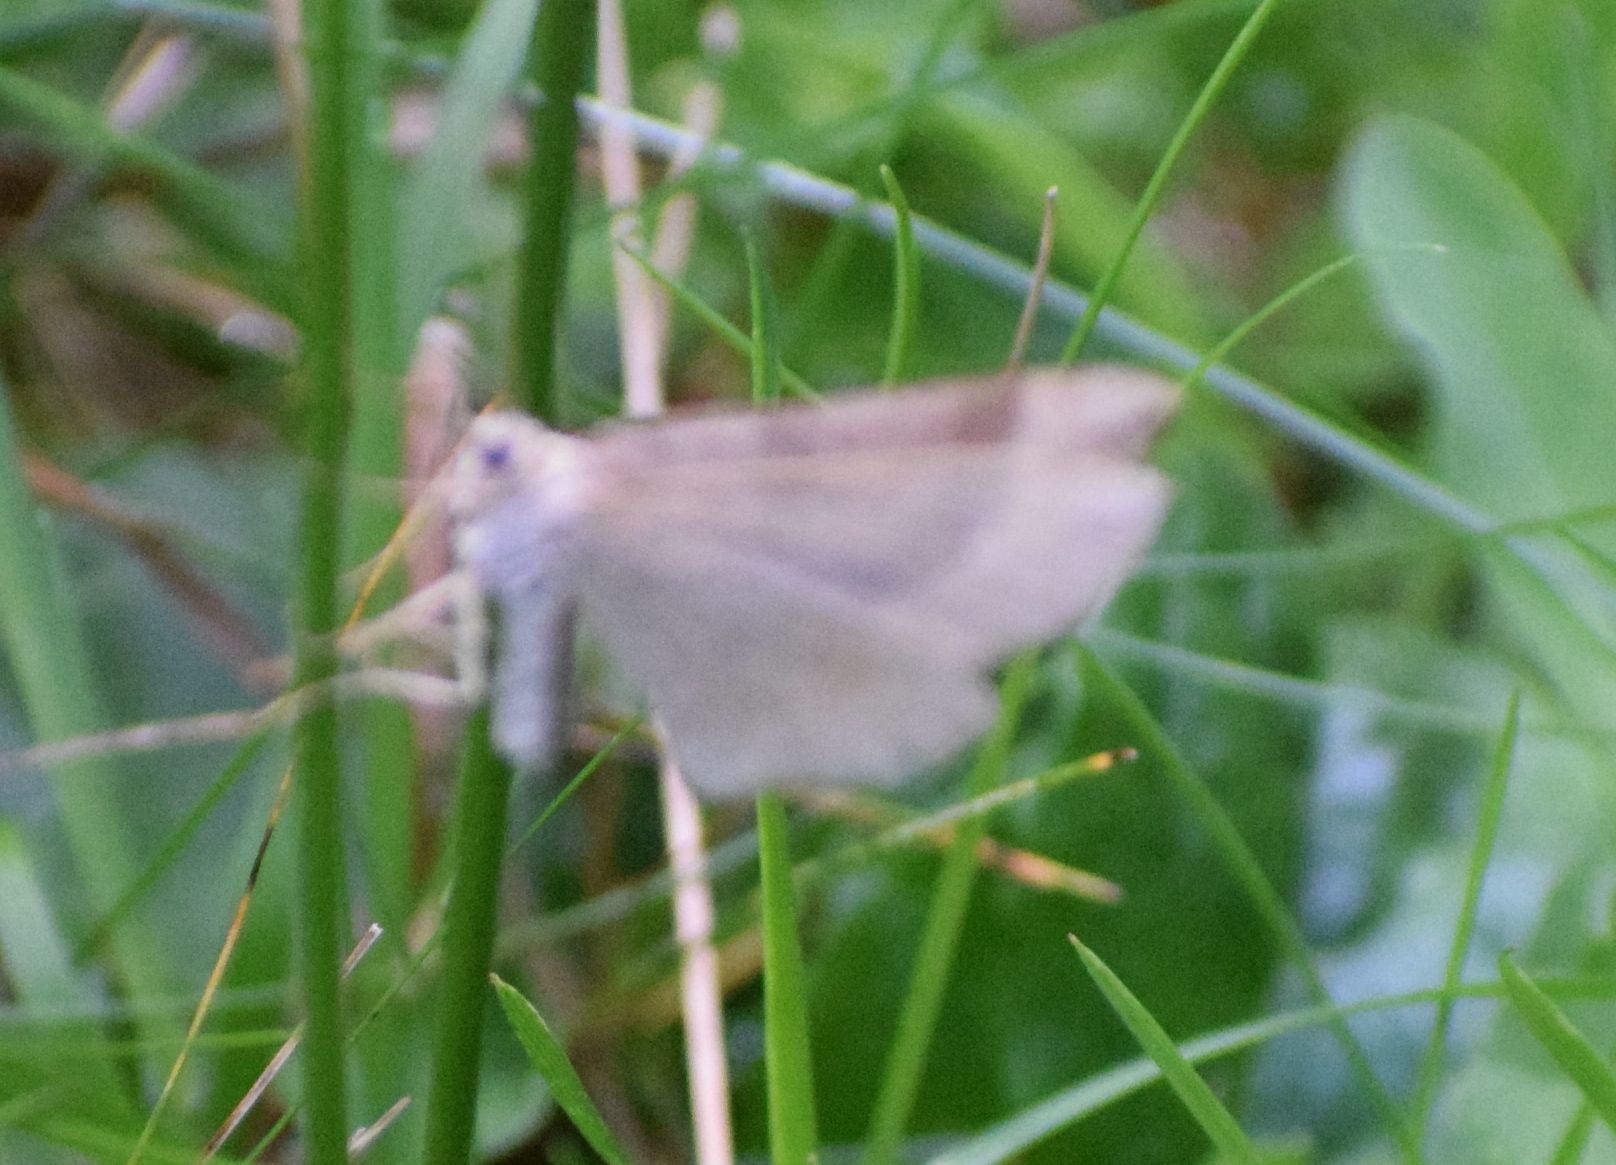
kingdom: Animalia
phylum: Arthropoda
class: Insecta
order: Lepidoptera
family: Geometridae
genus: Scotopteryx
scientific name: Scotopteryx chenopodiata
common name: Shaded broad-bar
